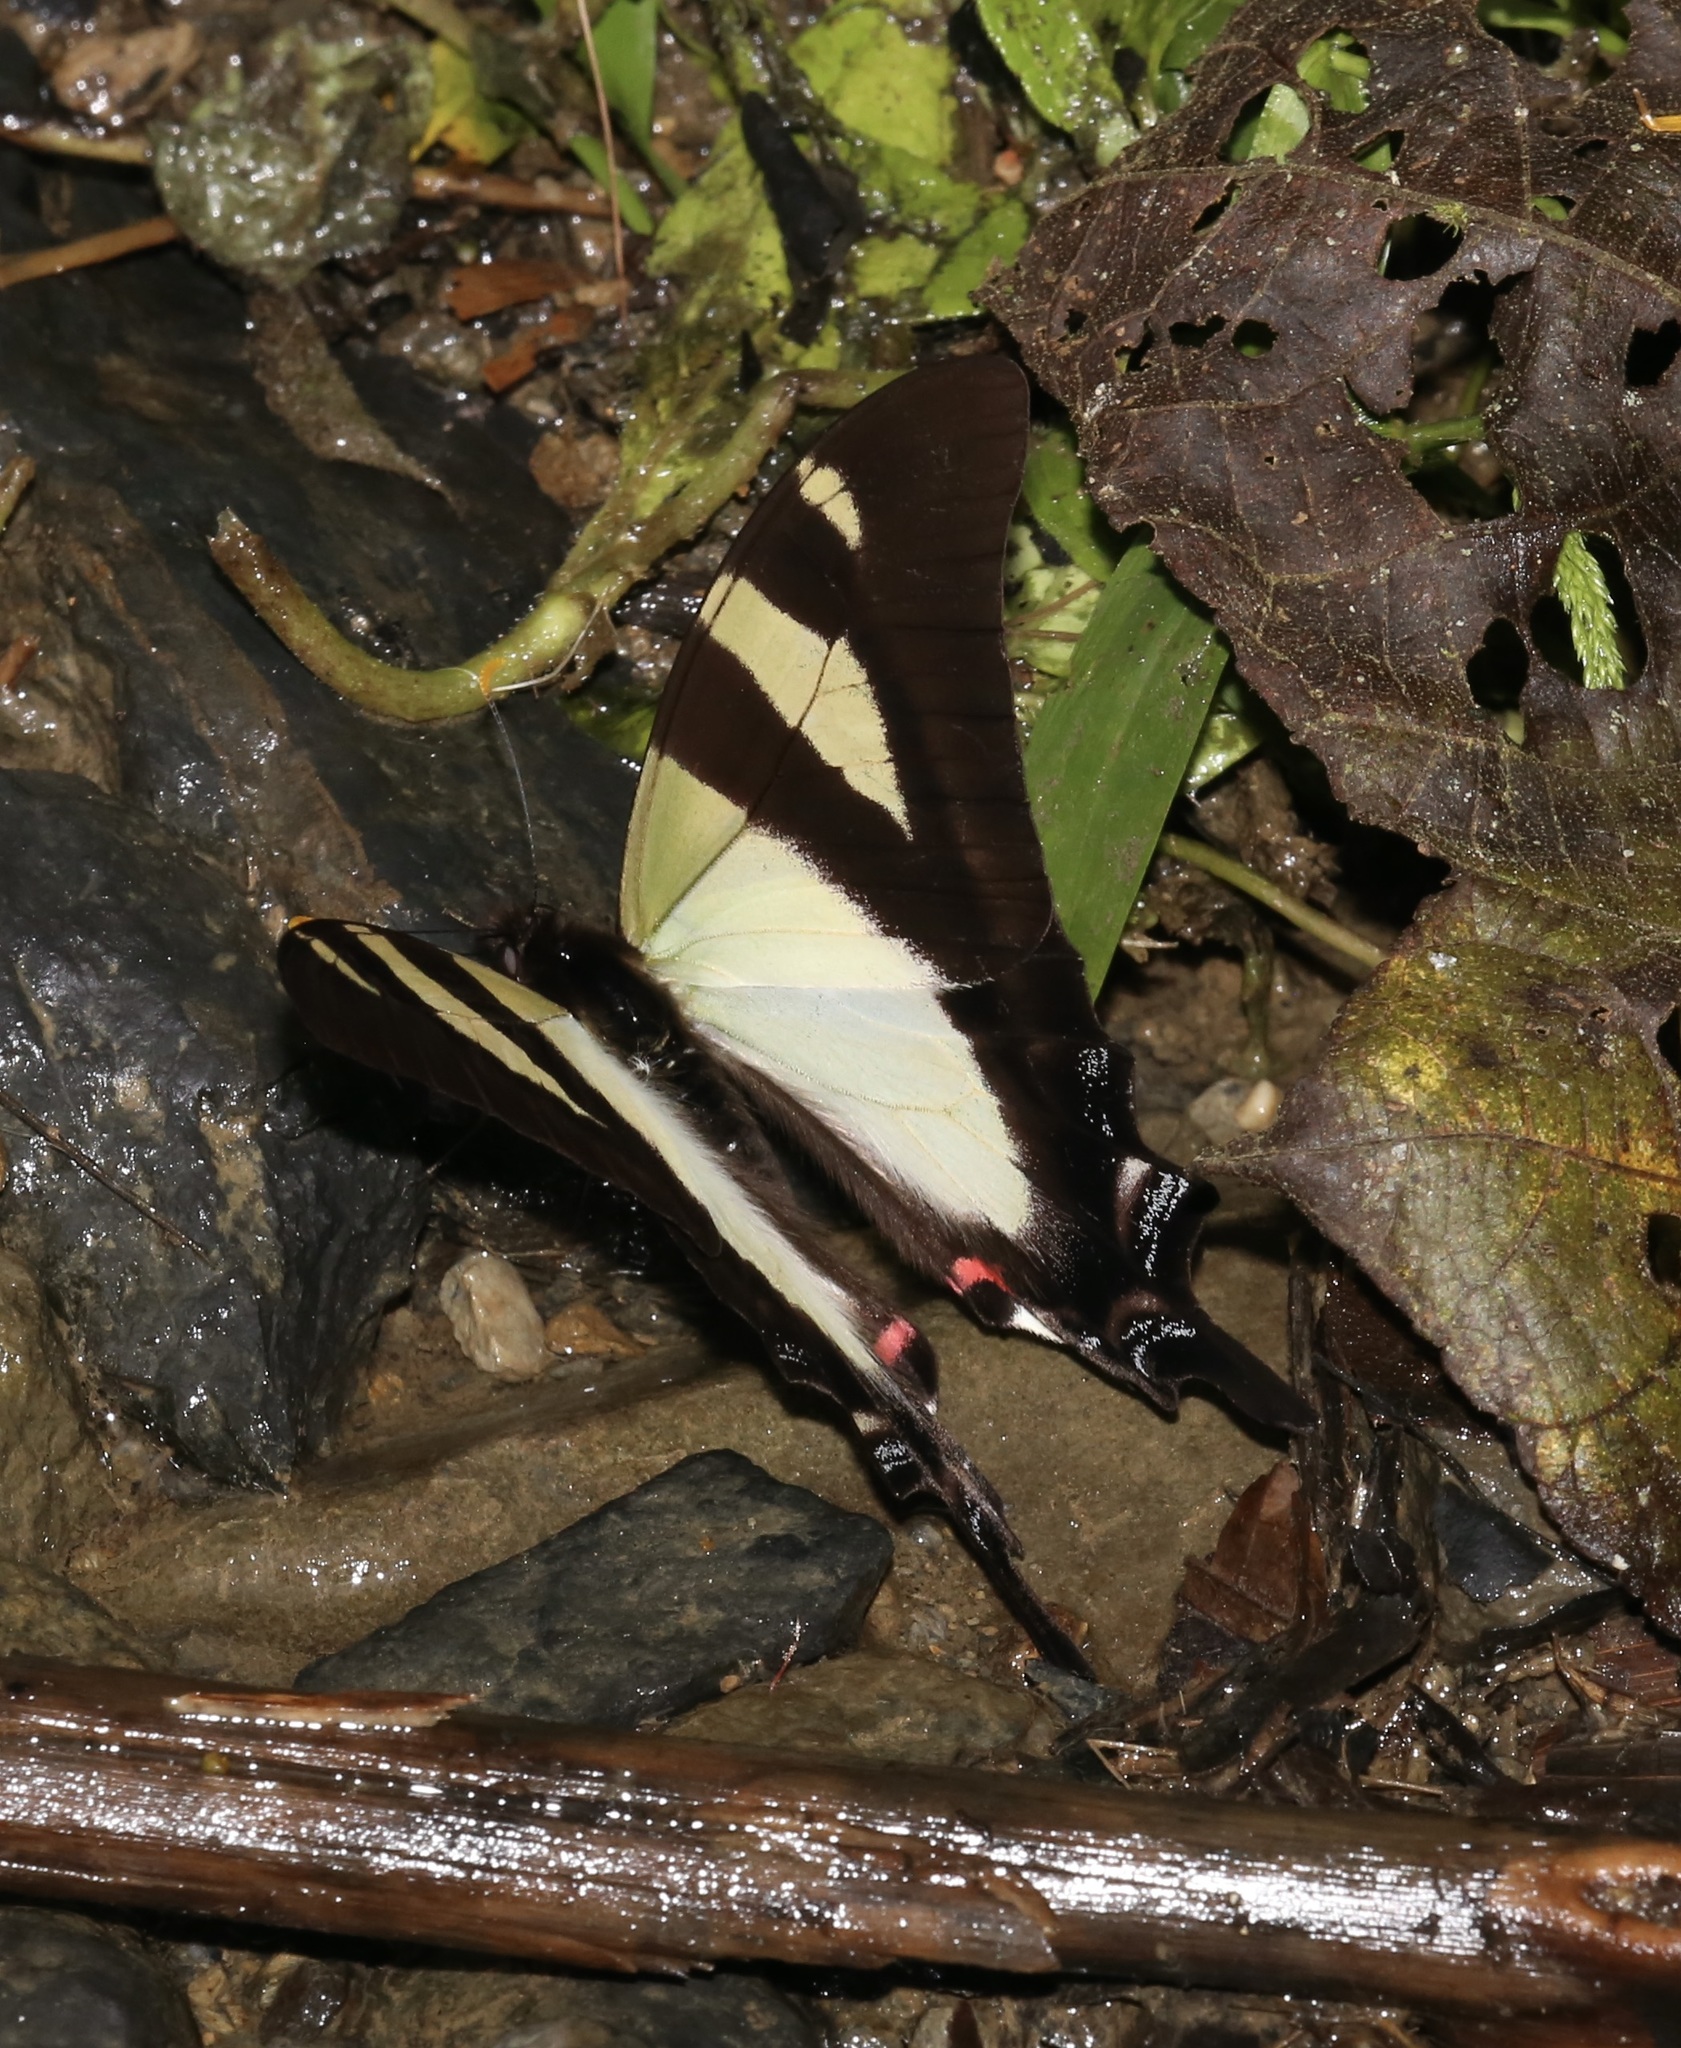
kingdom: Animalia
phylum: Arthropoda
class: Insecta
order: Lepidoptera
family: Papilionidae
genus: Eurytides
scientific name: Eurytides
